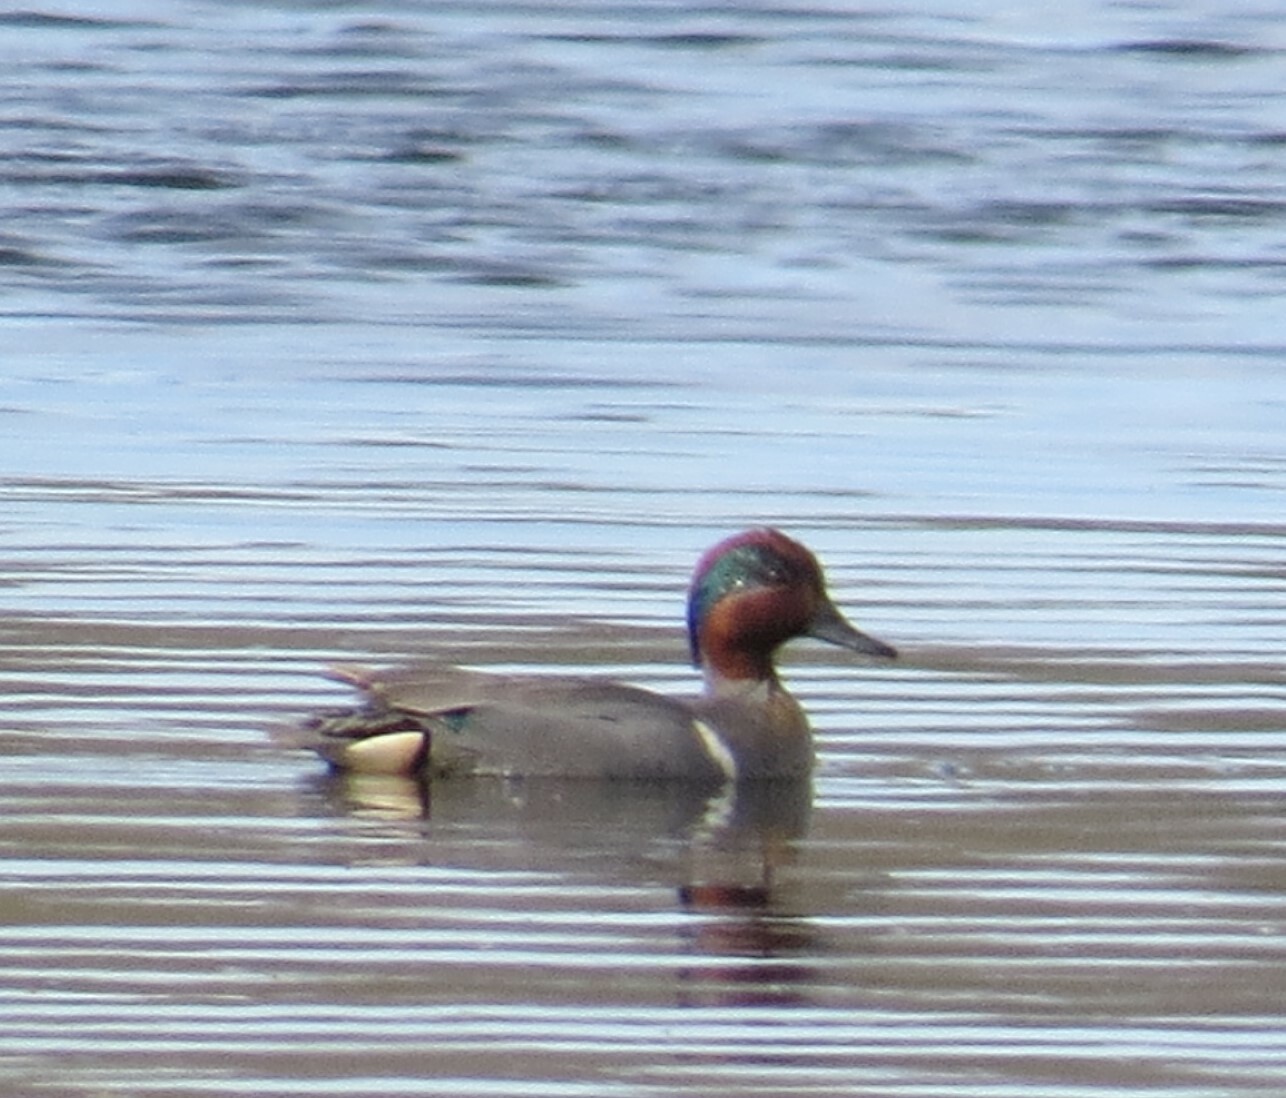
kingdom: Animalia
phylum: Chordata
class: Aves
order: Anseriformes
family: Anatidae
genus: Anas
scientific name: Anas crecca
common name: Eurasian teal
